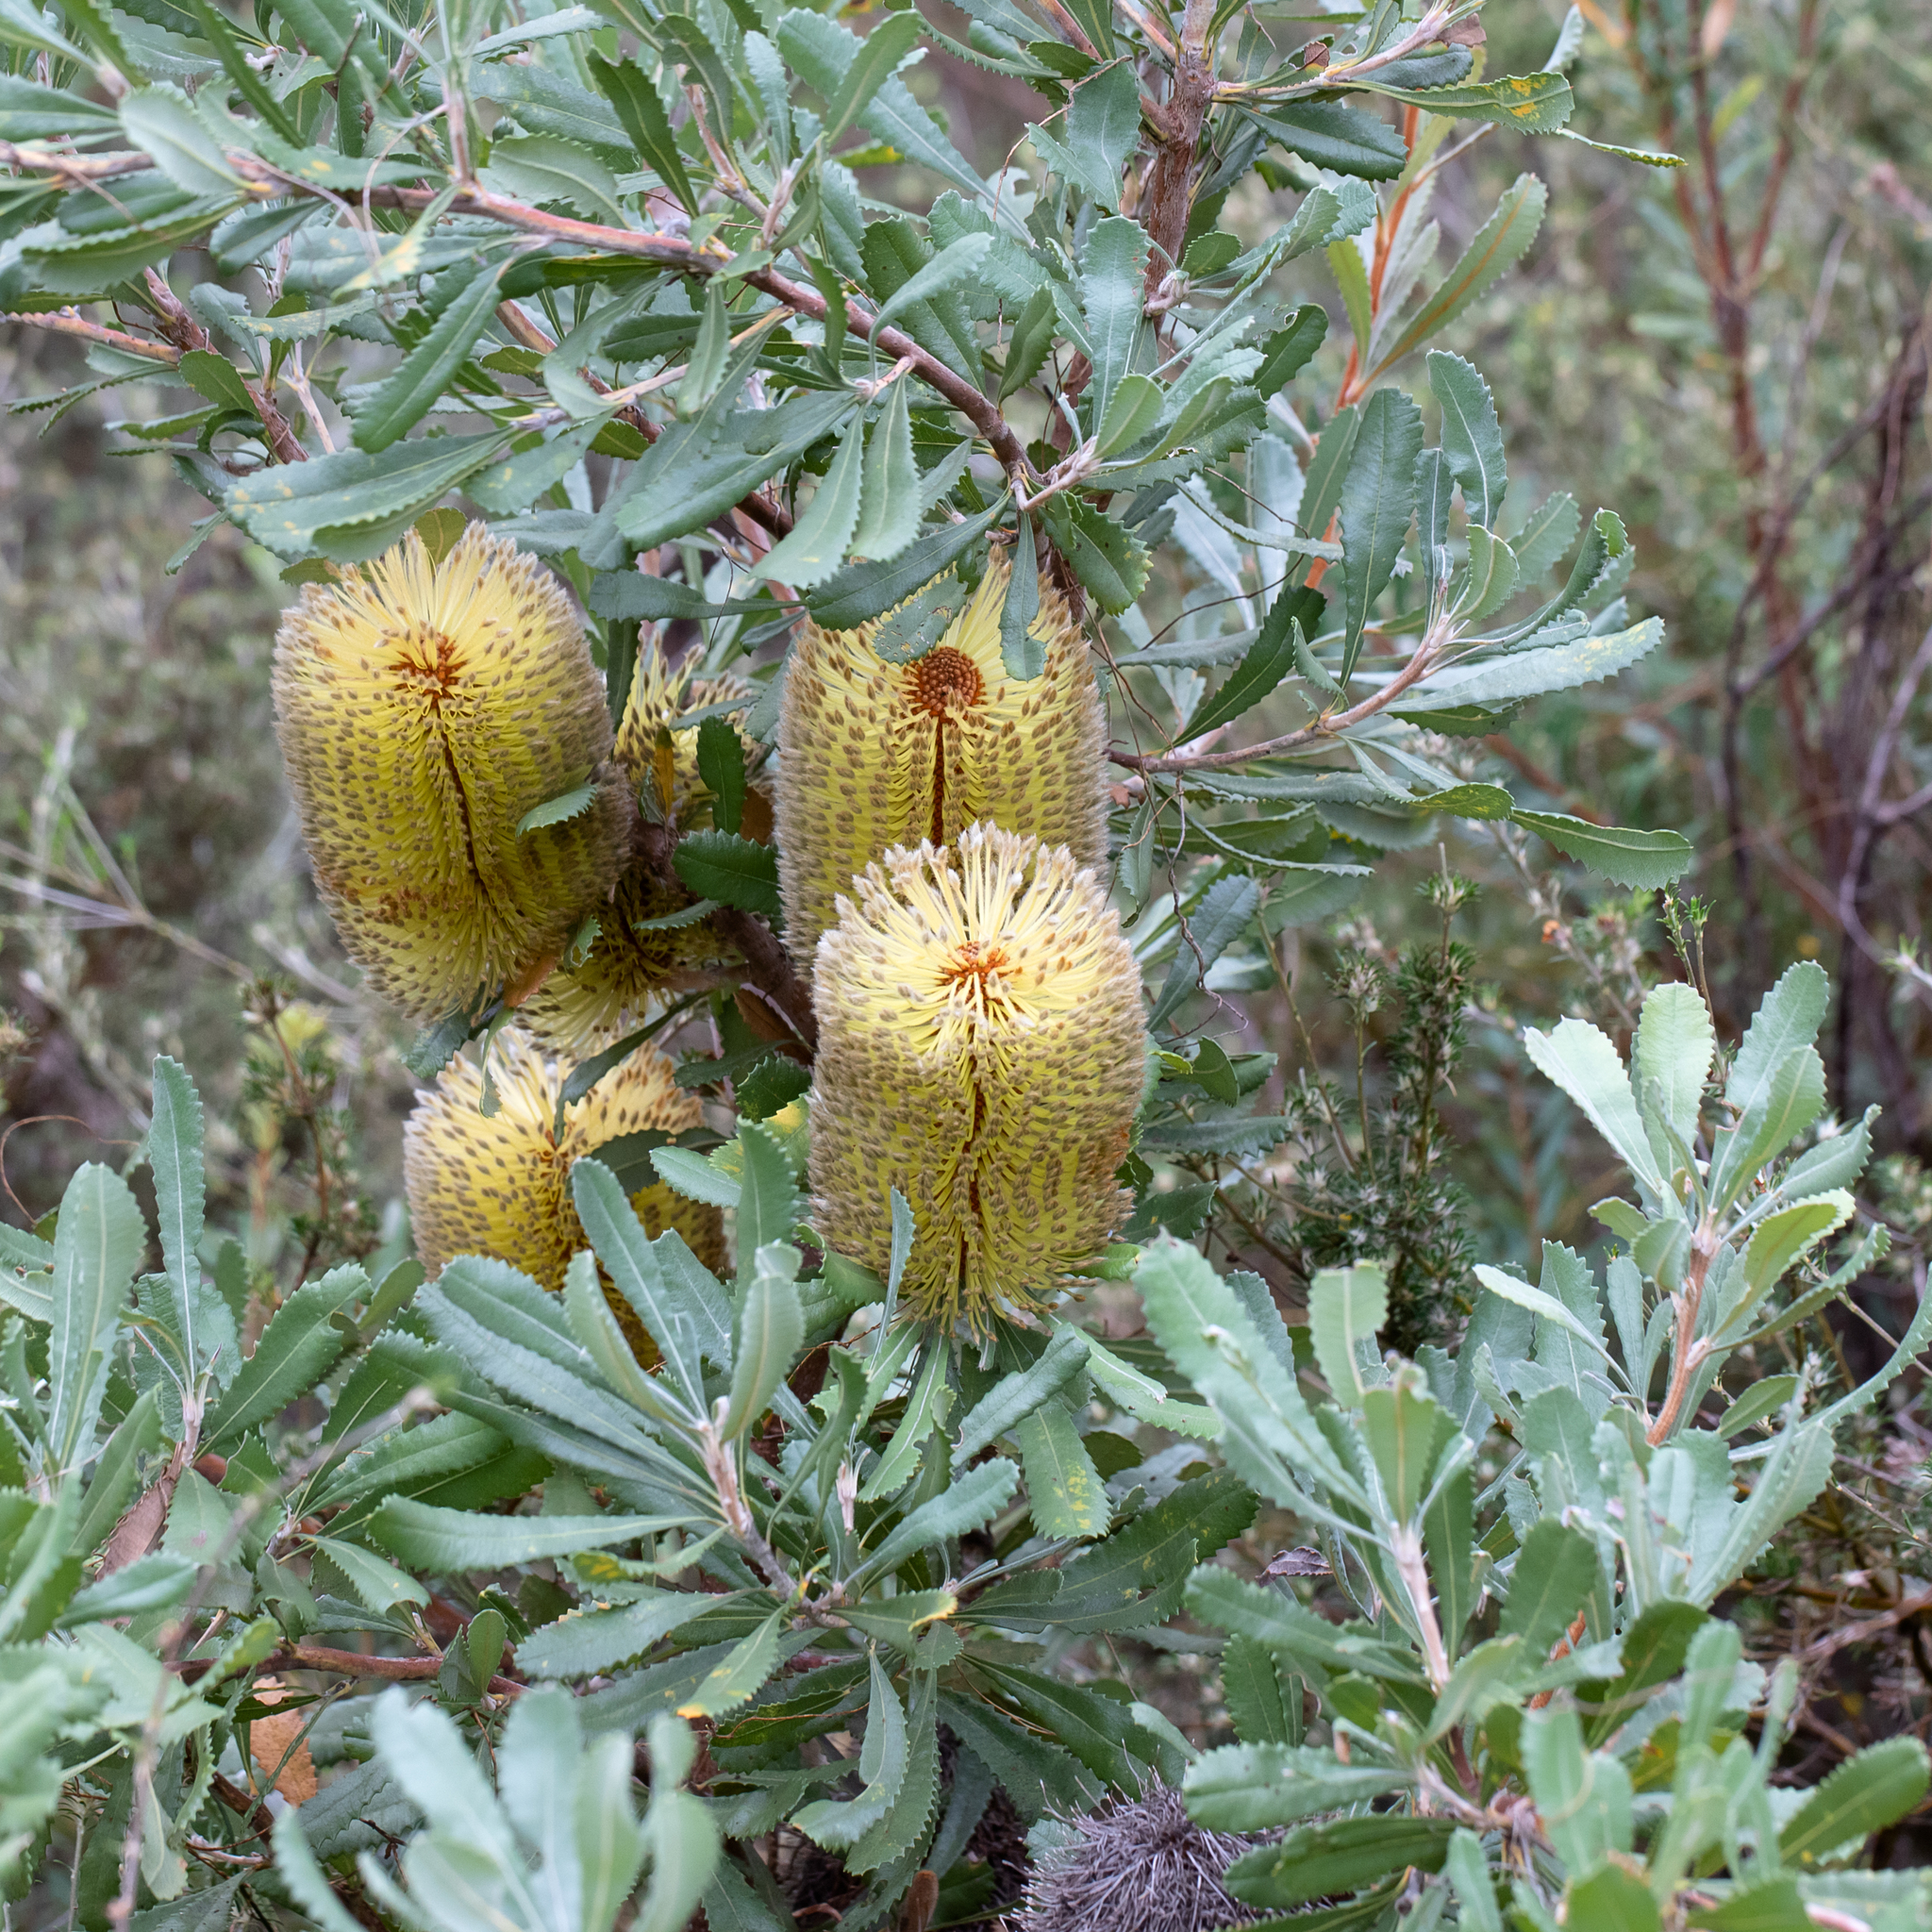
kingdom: Plantae
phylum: Tracheophyta
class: Magnoliopsida
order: Proteales
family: Proteaceae
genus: Banksia
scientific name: Banksia ornata
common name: Desert banksia
